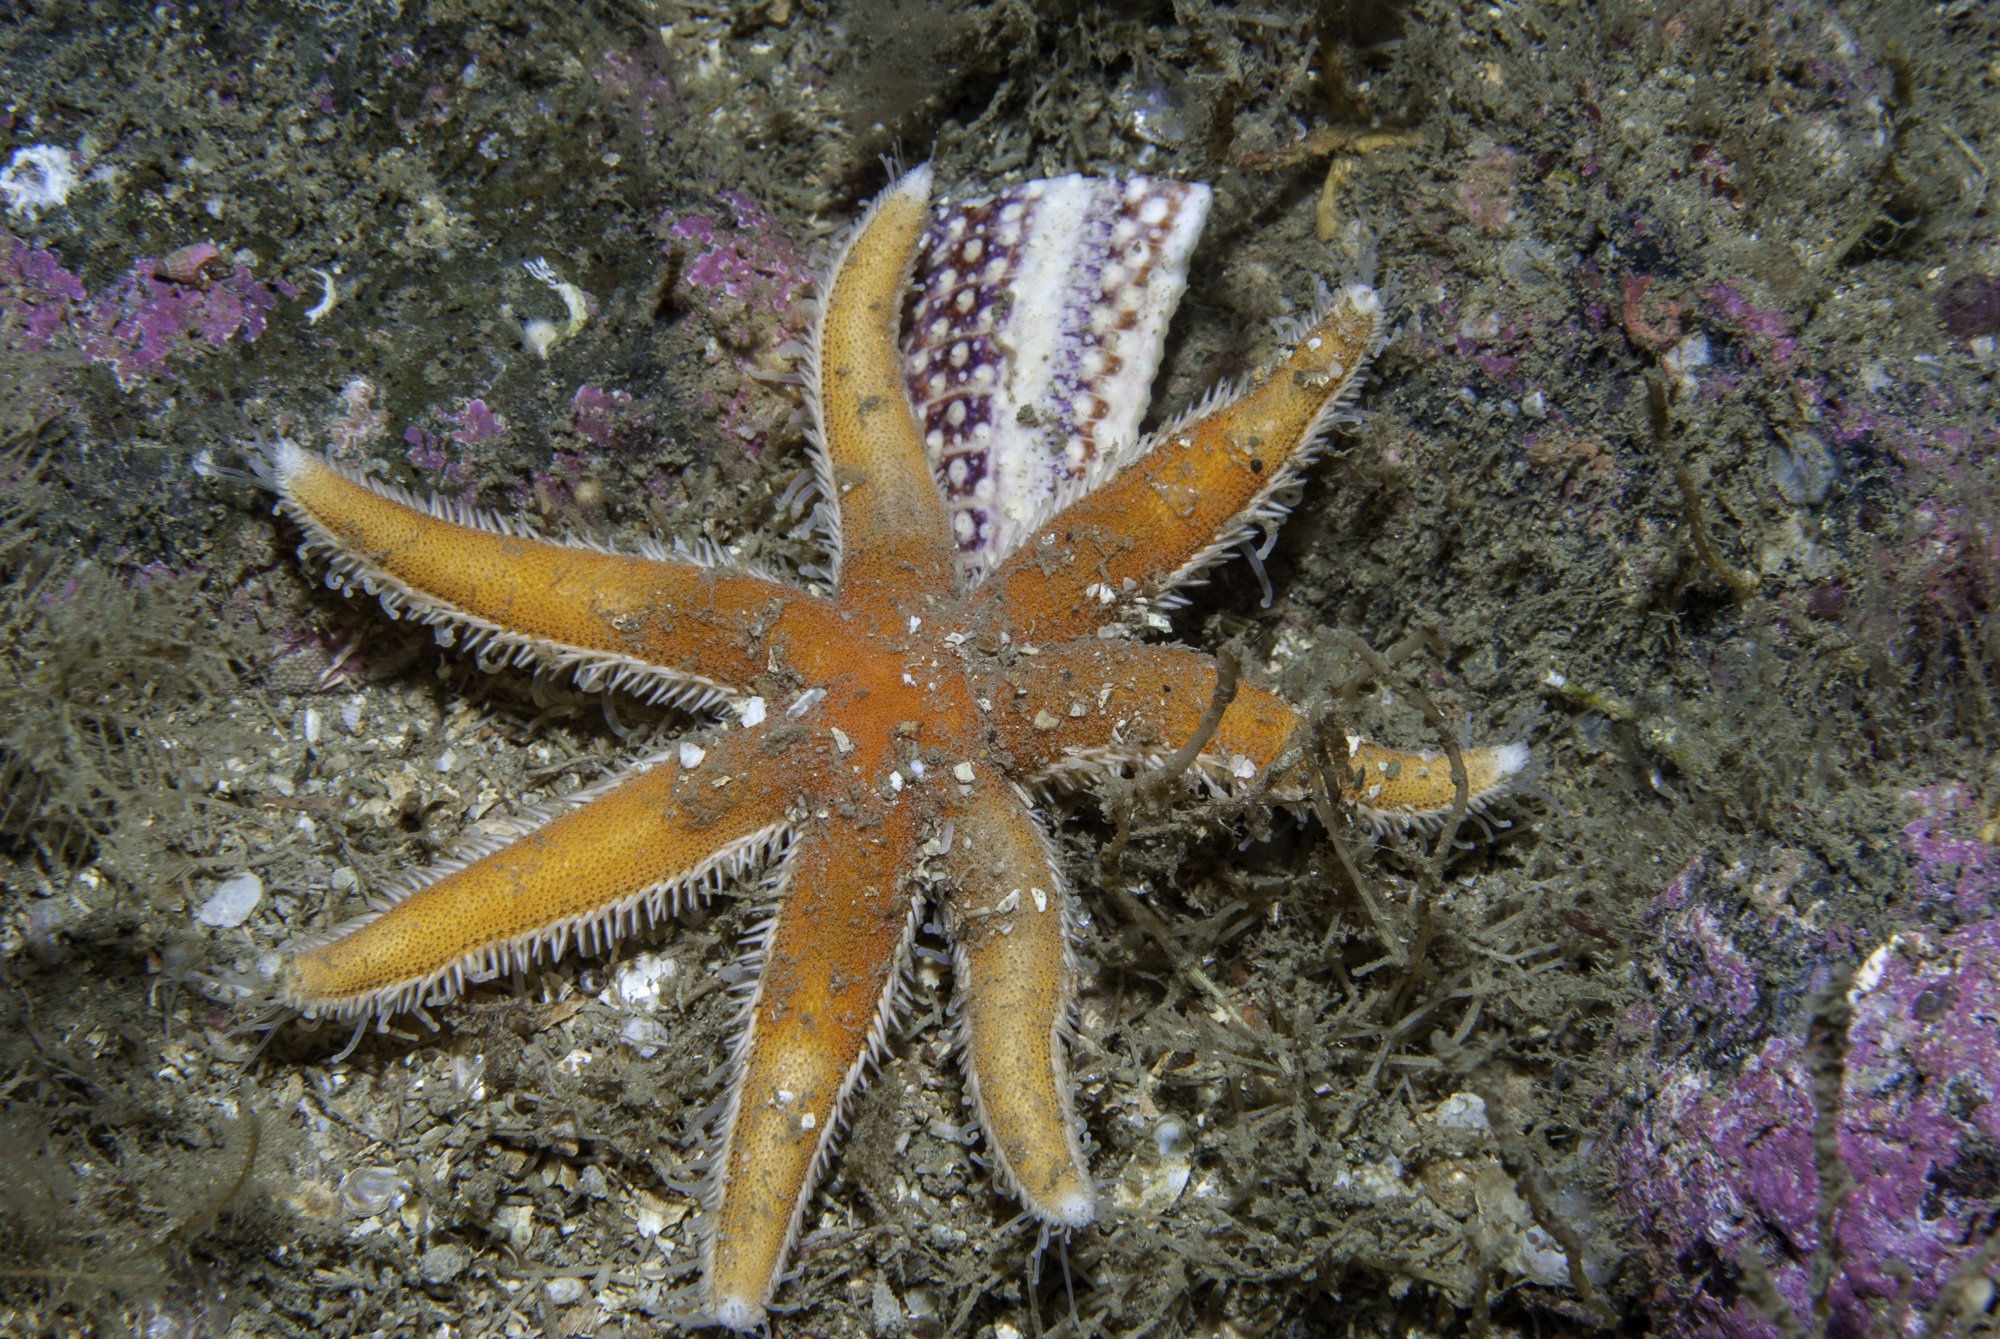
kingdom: Animalia
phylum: Echinodermata
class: Asteroidea
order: Paxillosida
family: Luidiidae
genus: Luidia
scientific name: Luidia ciliaris
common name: Seven-armed starfish
